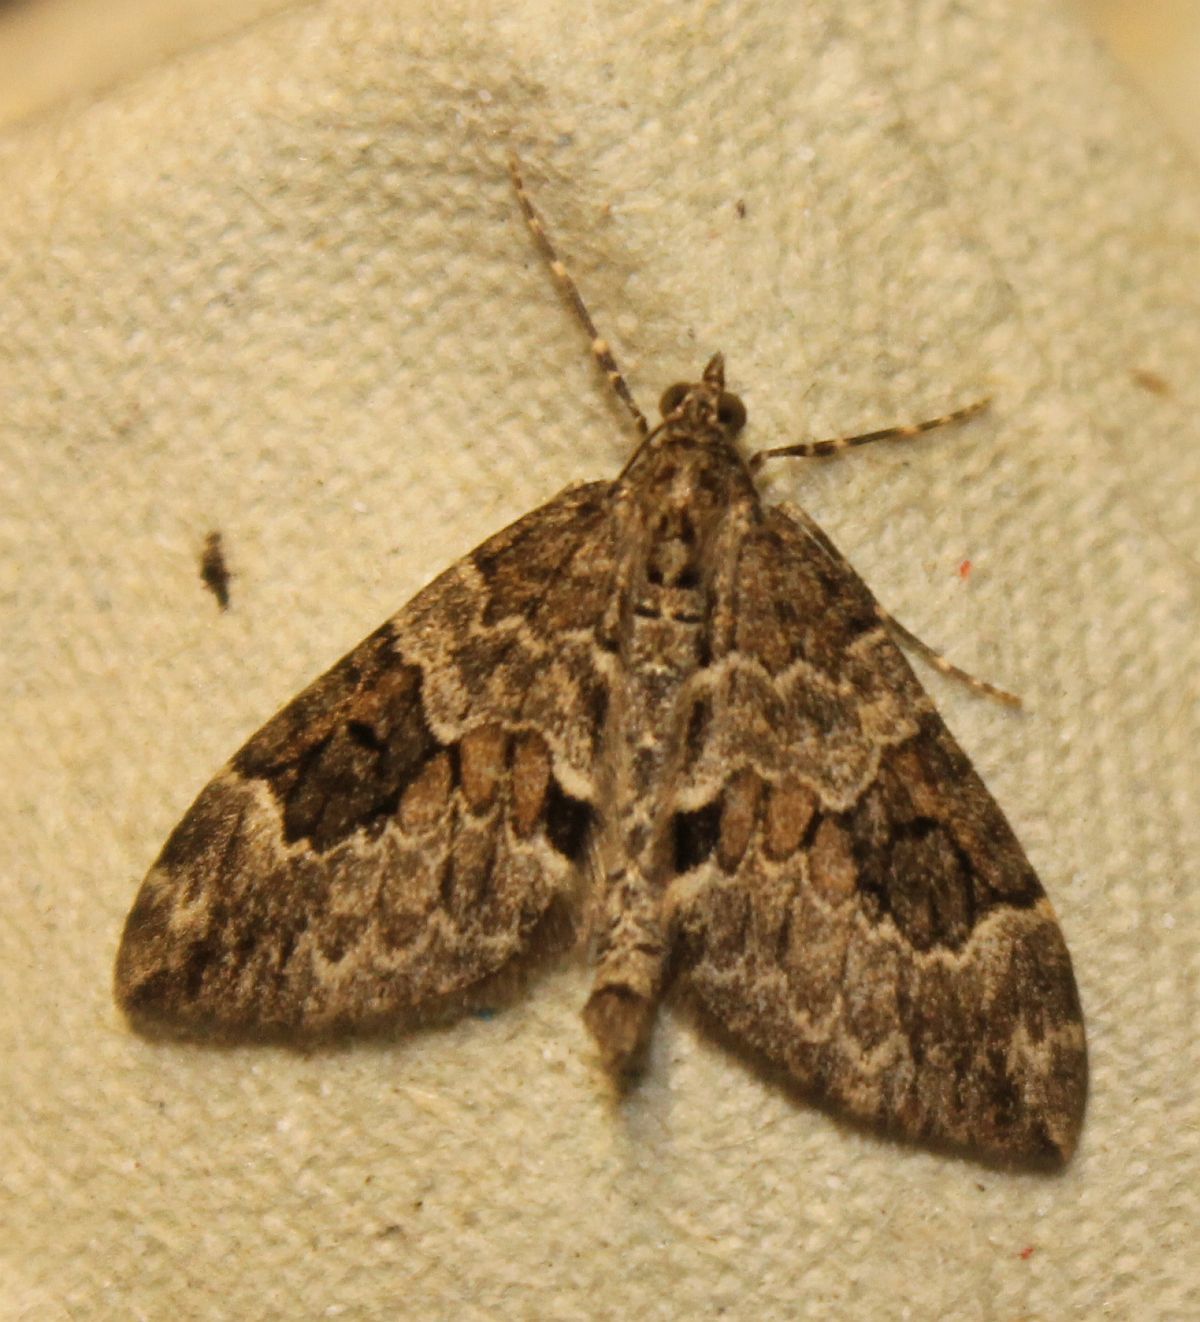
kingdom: Animalia
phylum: Arthropoda
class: Insecta
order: Lepidoptera
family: Geometridae
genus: Thera
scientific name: Thera britannica
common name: Spruce carpet
